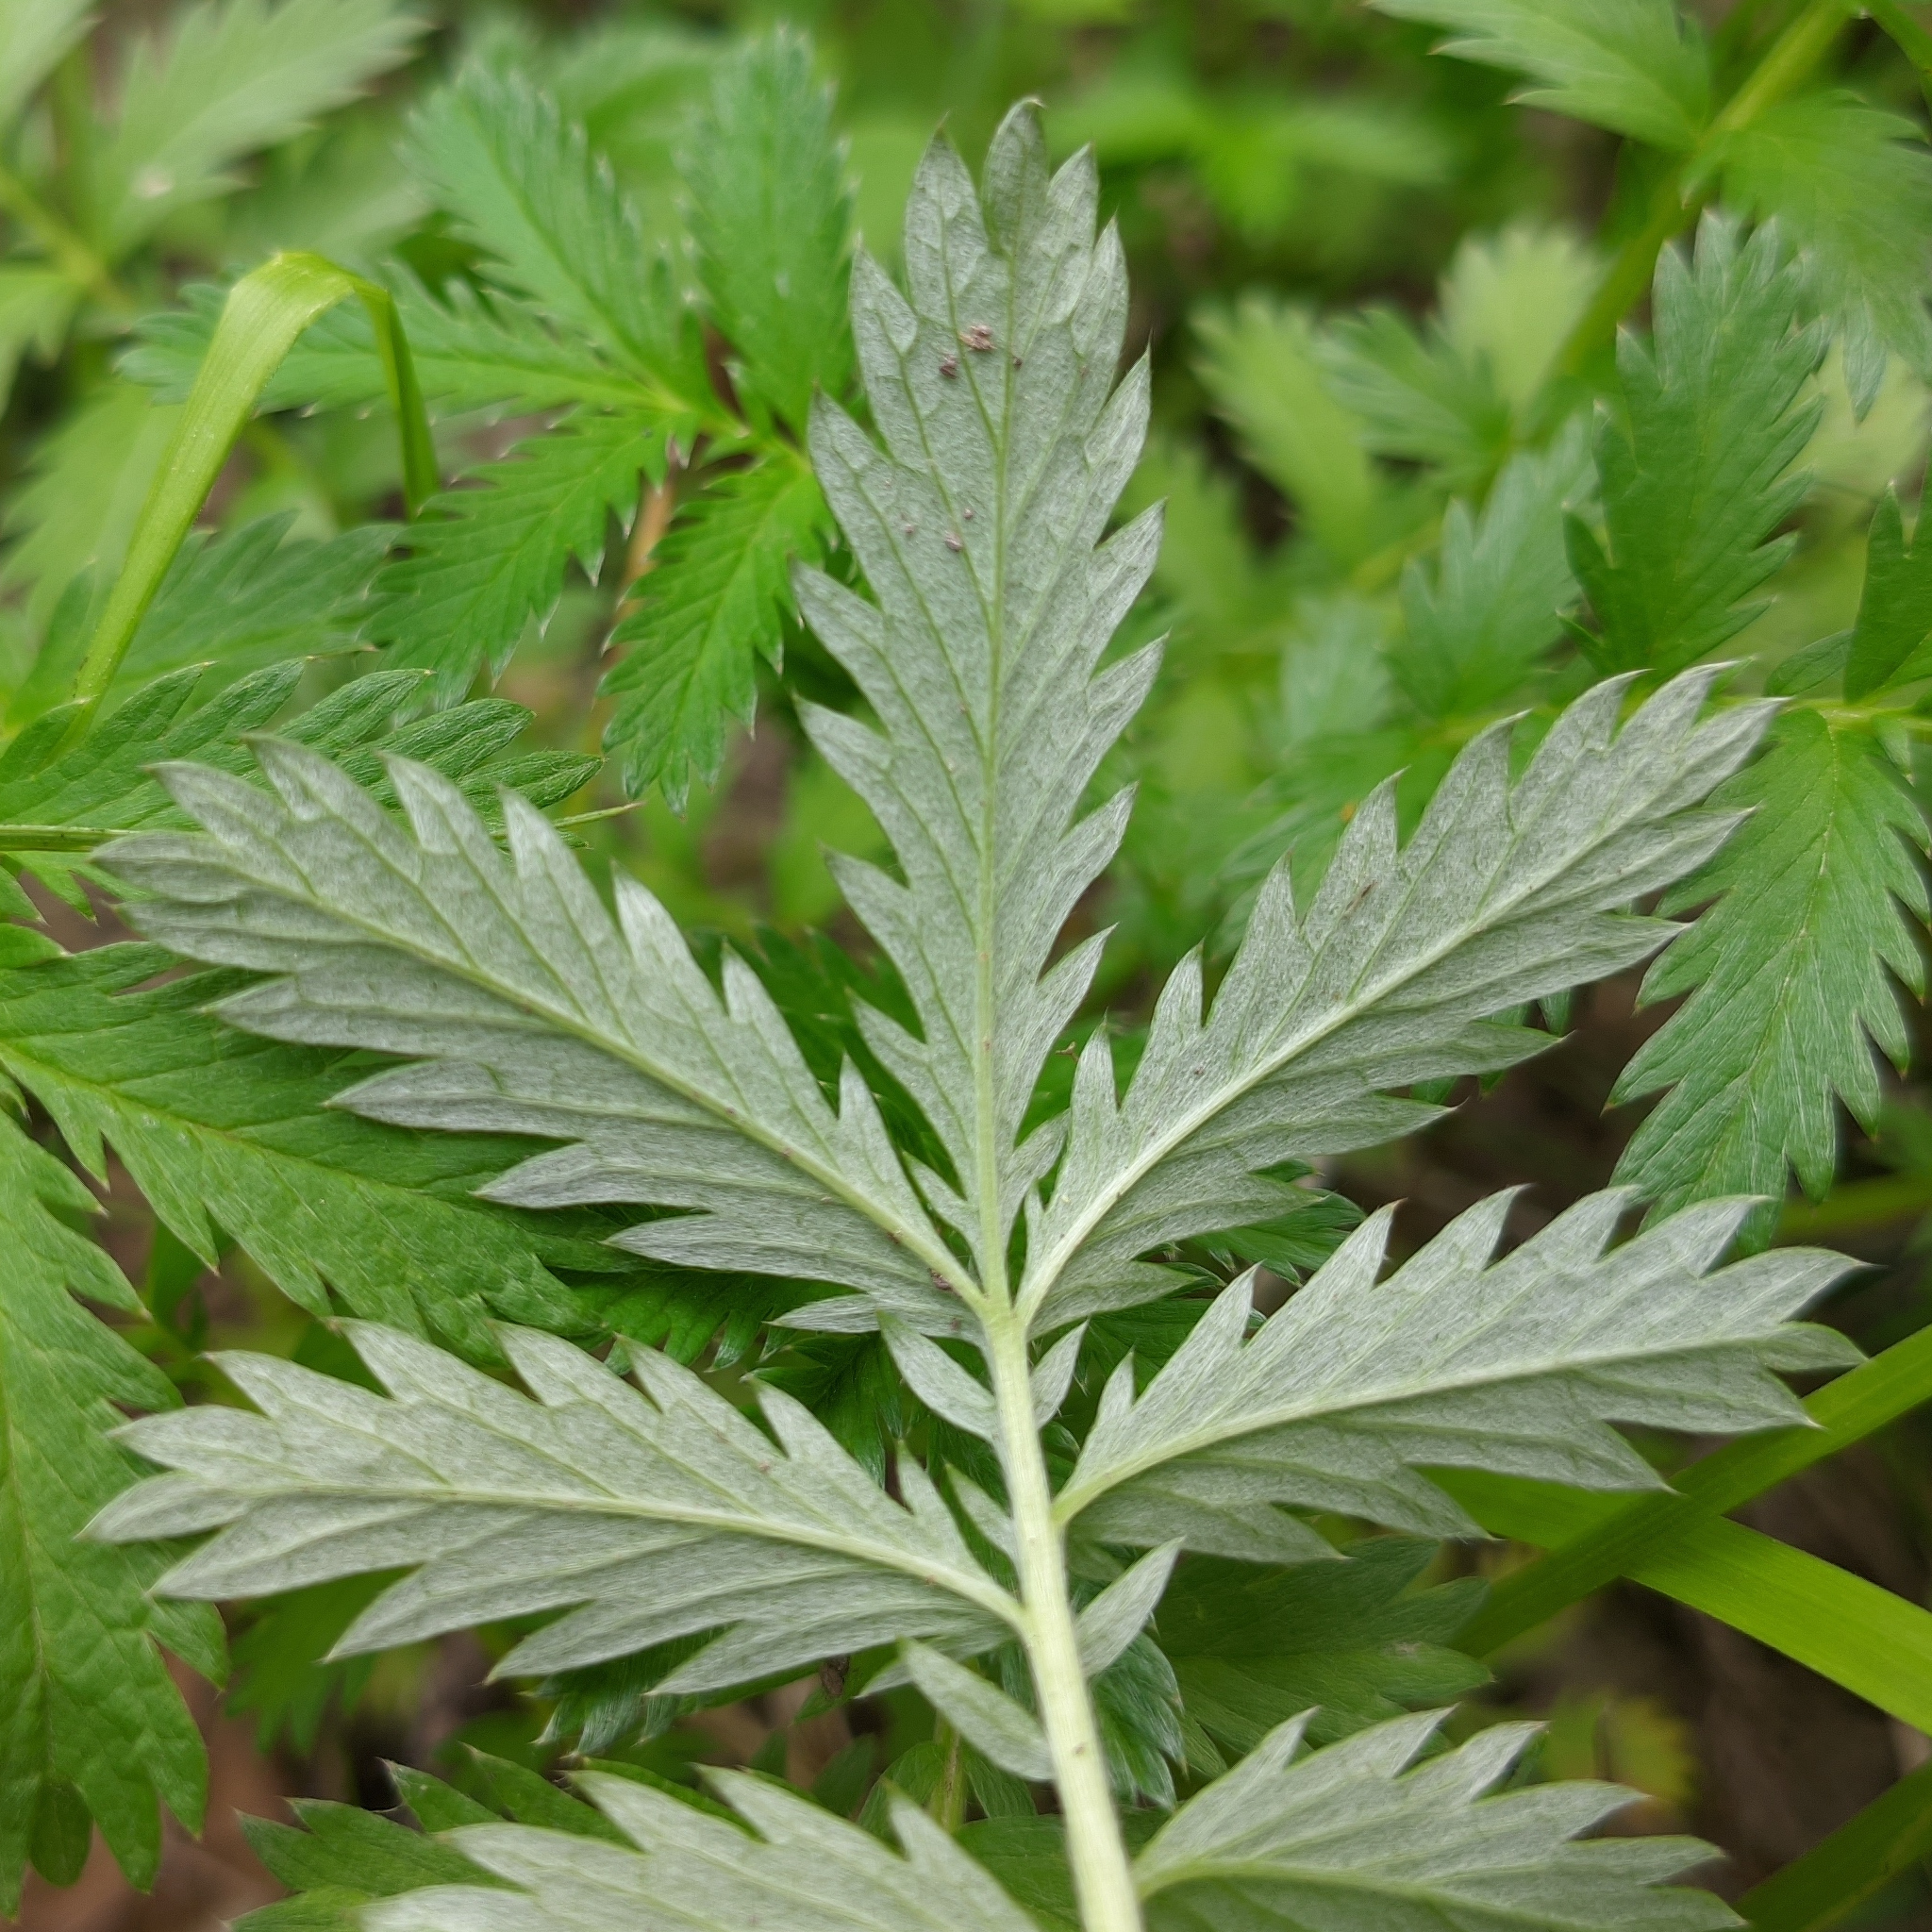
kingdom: Plantae
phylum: Tracheophyta
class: Magnoliopsida
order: Rosales
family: Rosaceae
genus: Argentina
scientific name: Argentina anserina
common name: Common silverweed
